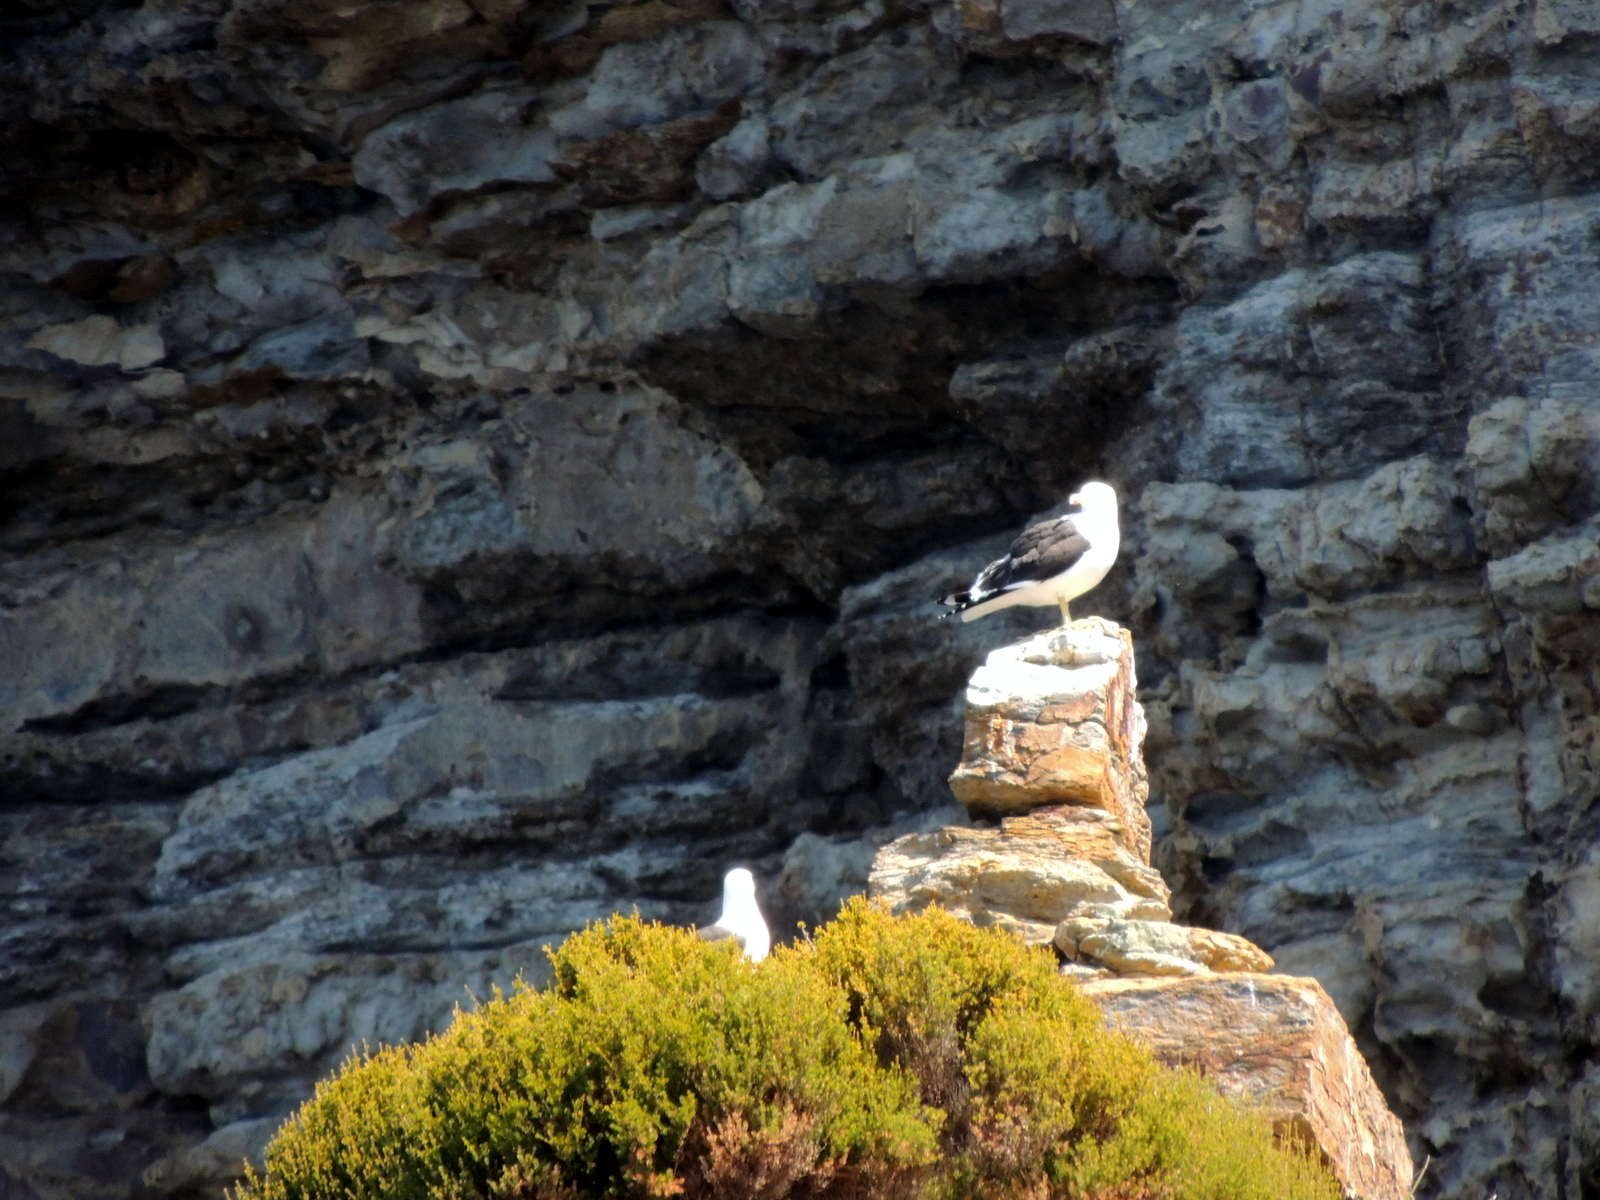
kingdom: Animalia
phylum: Chordata
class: Aves
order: Charadriiformes
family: Laridae
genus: Larus
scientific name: Larus dominicanus
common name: Kelp gull
